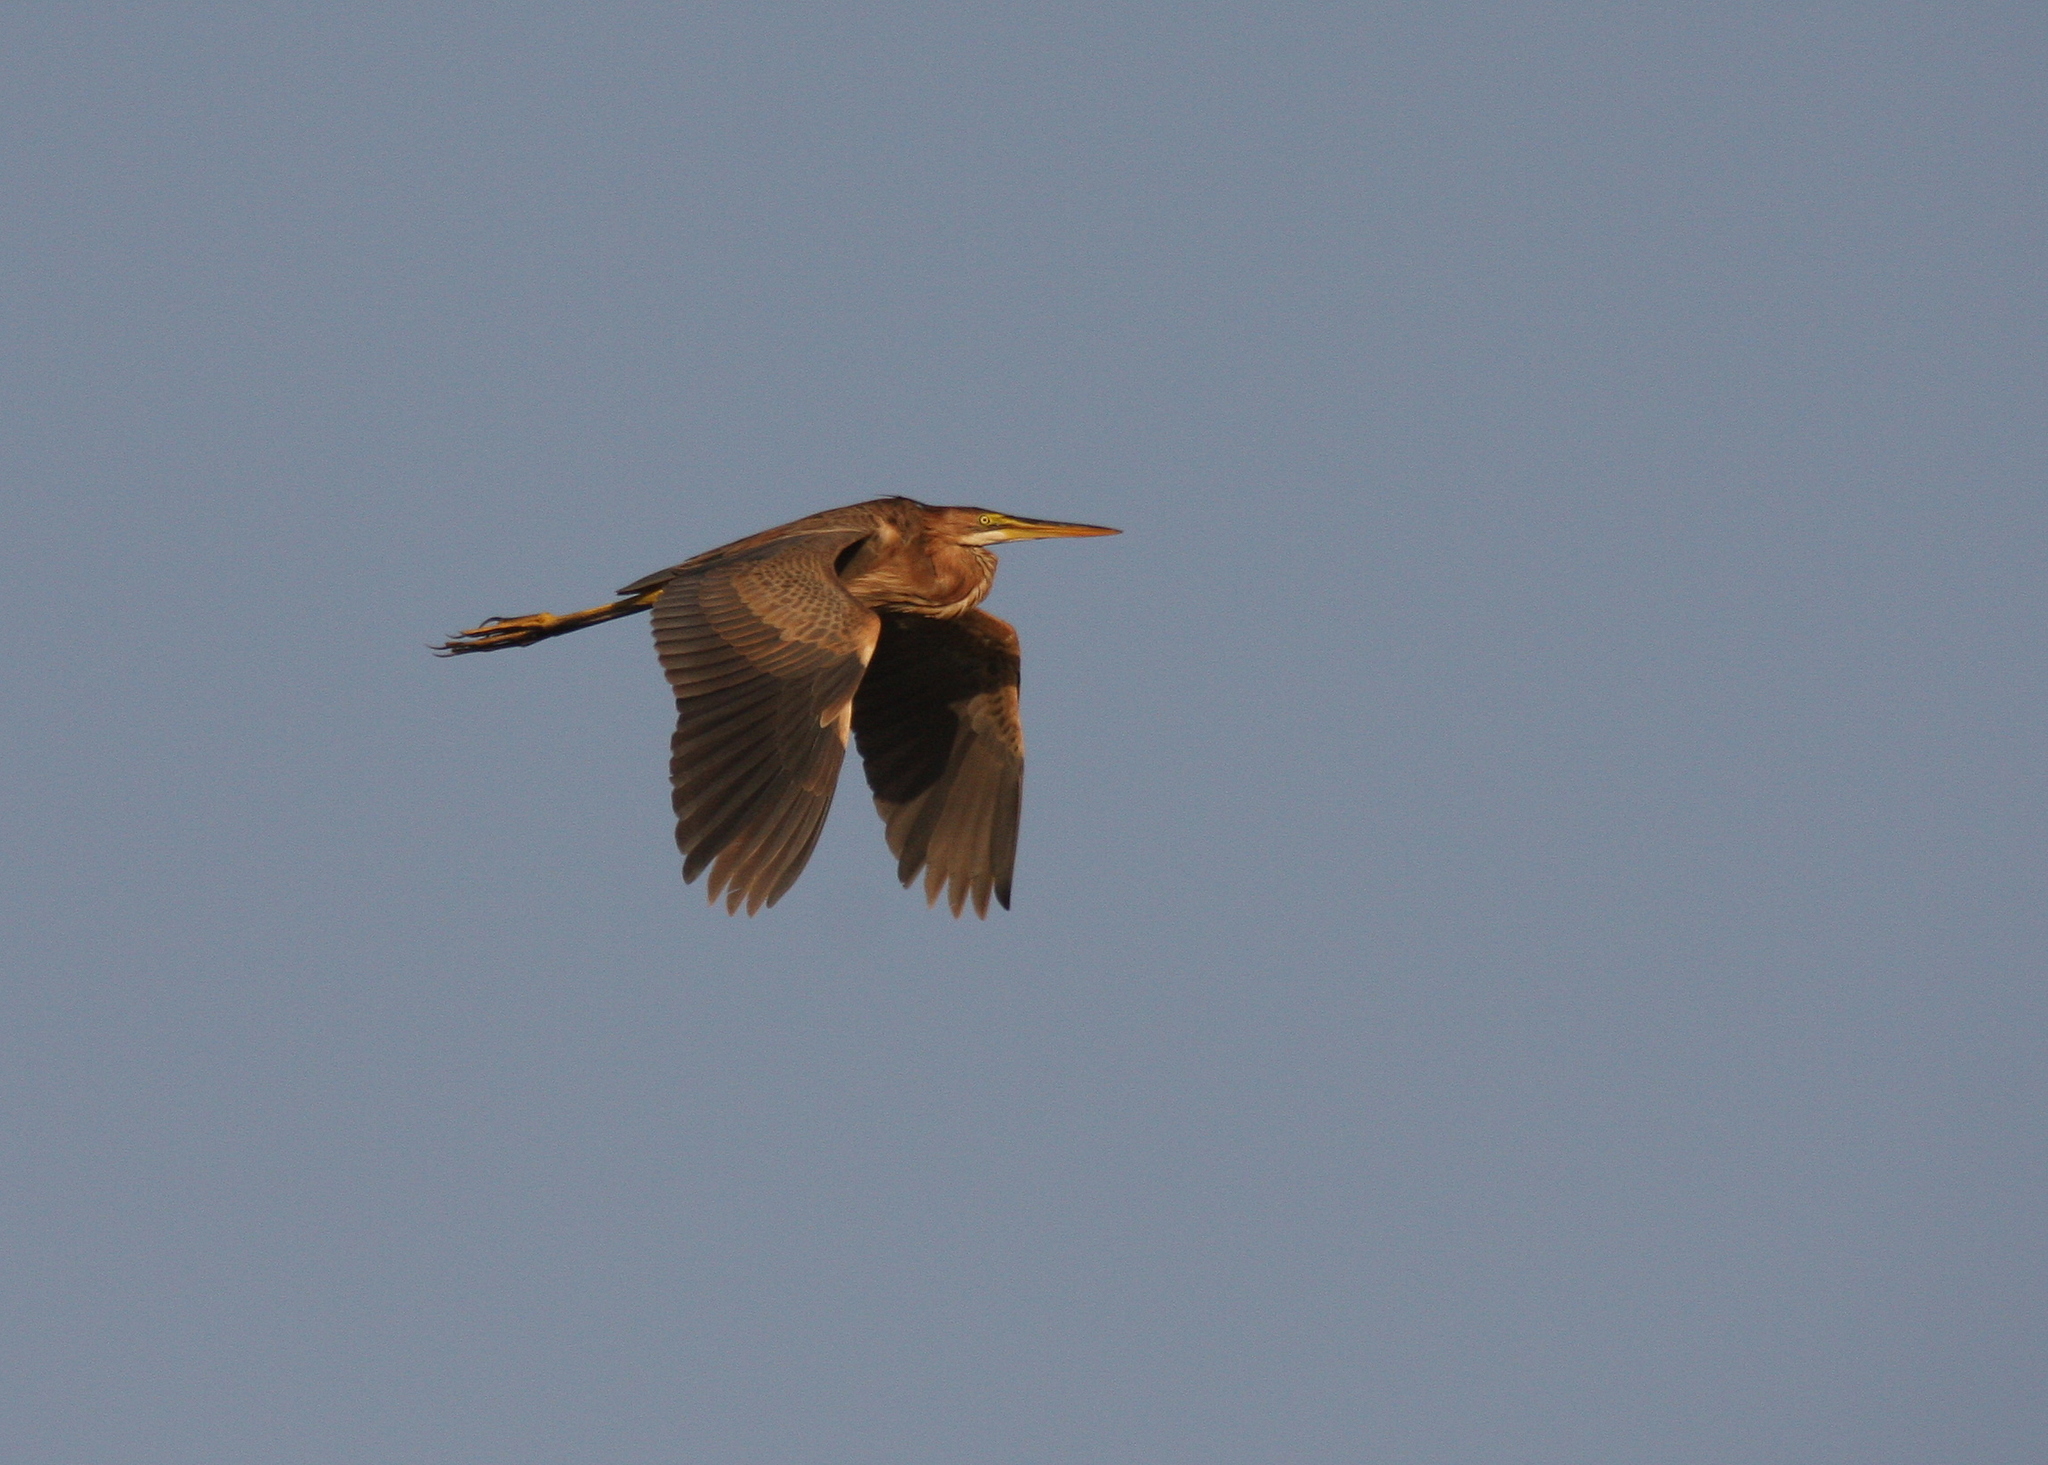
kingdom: Animalia
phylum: Chordata
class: Aves
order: Pelecaniformes
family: Ardeidae
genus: Ardea
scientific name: Ardea purpurea
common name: Purple heron
